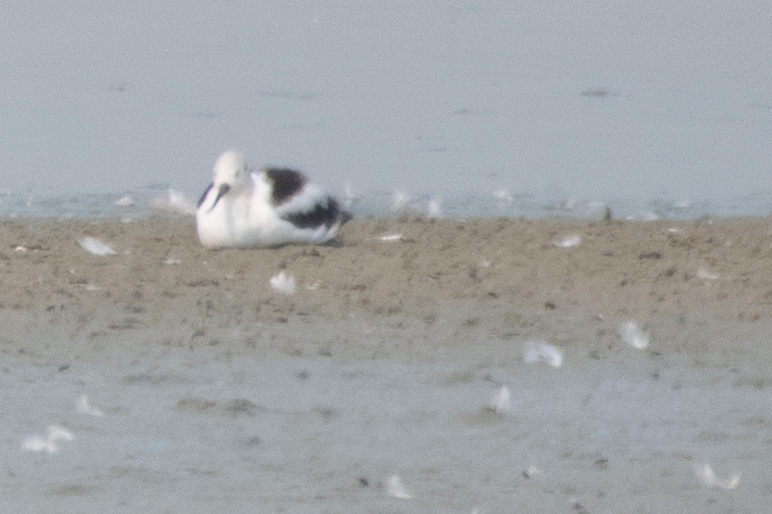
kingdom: Animalia
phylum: Chordata
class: Aves
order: Charadriiformes
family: Recurvirostridae
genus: Recurvirostra
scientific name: Recurvirostra americana
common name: American avocet
